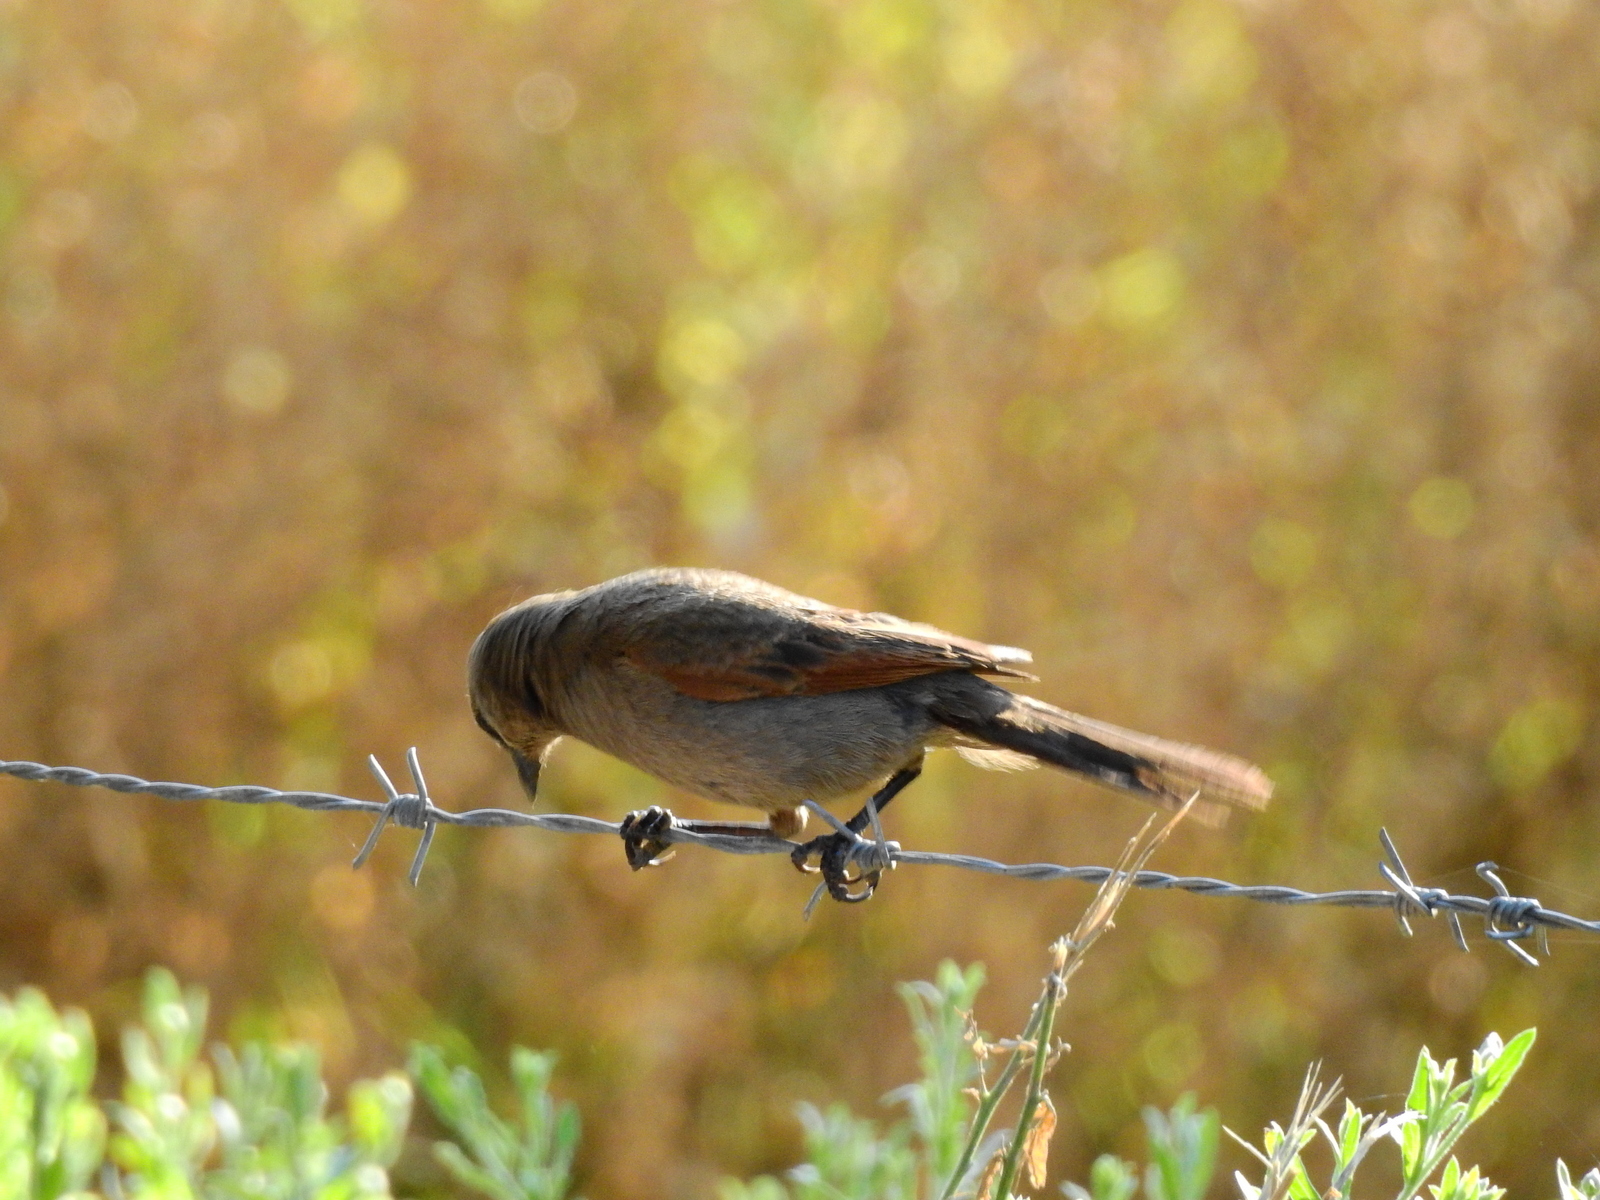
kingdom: Animalia
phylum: Chordata
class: Aves
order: Passeriformes
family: Icteridae
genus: Agelaioides
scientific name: Agelaioides badius
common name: Baywing
